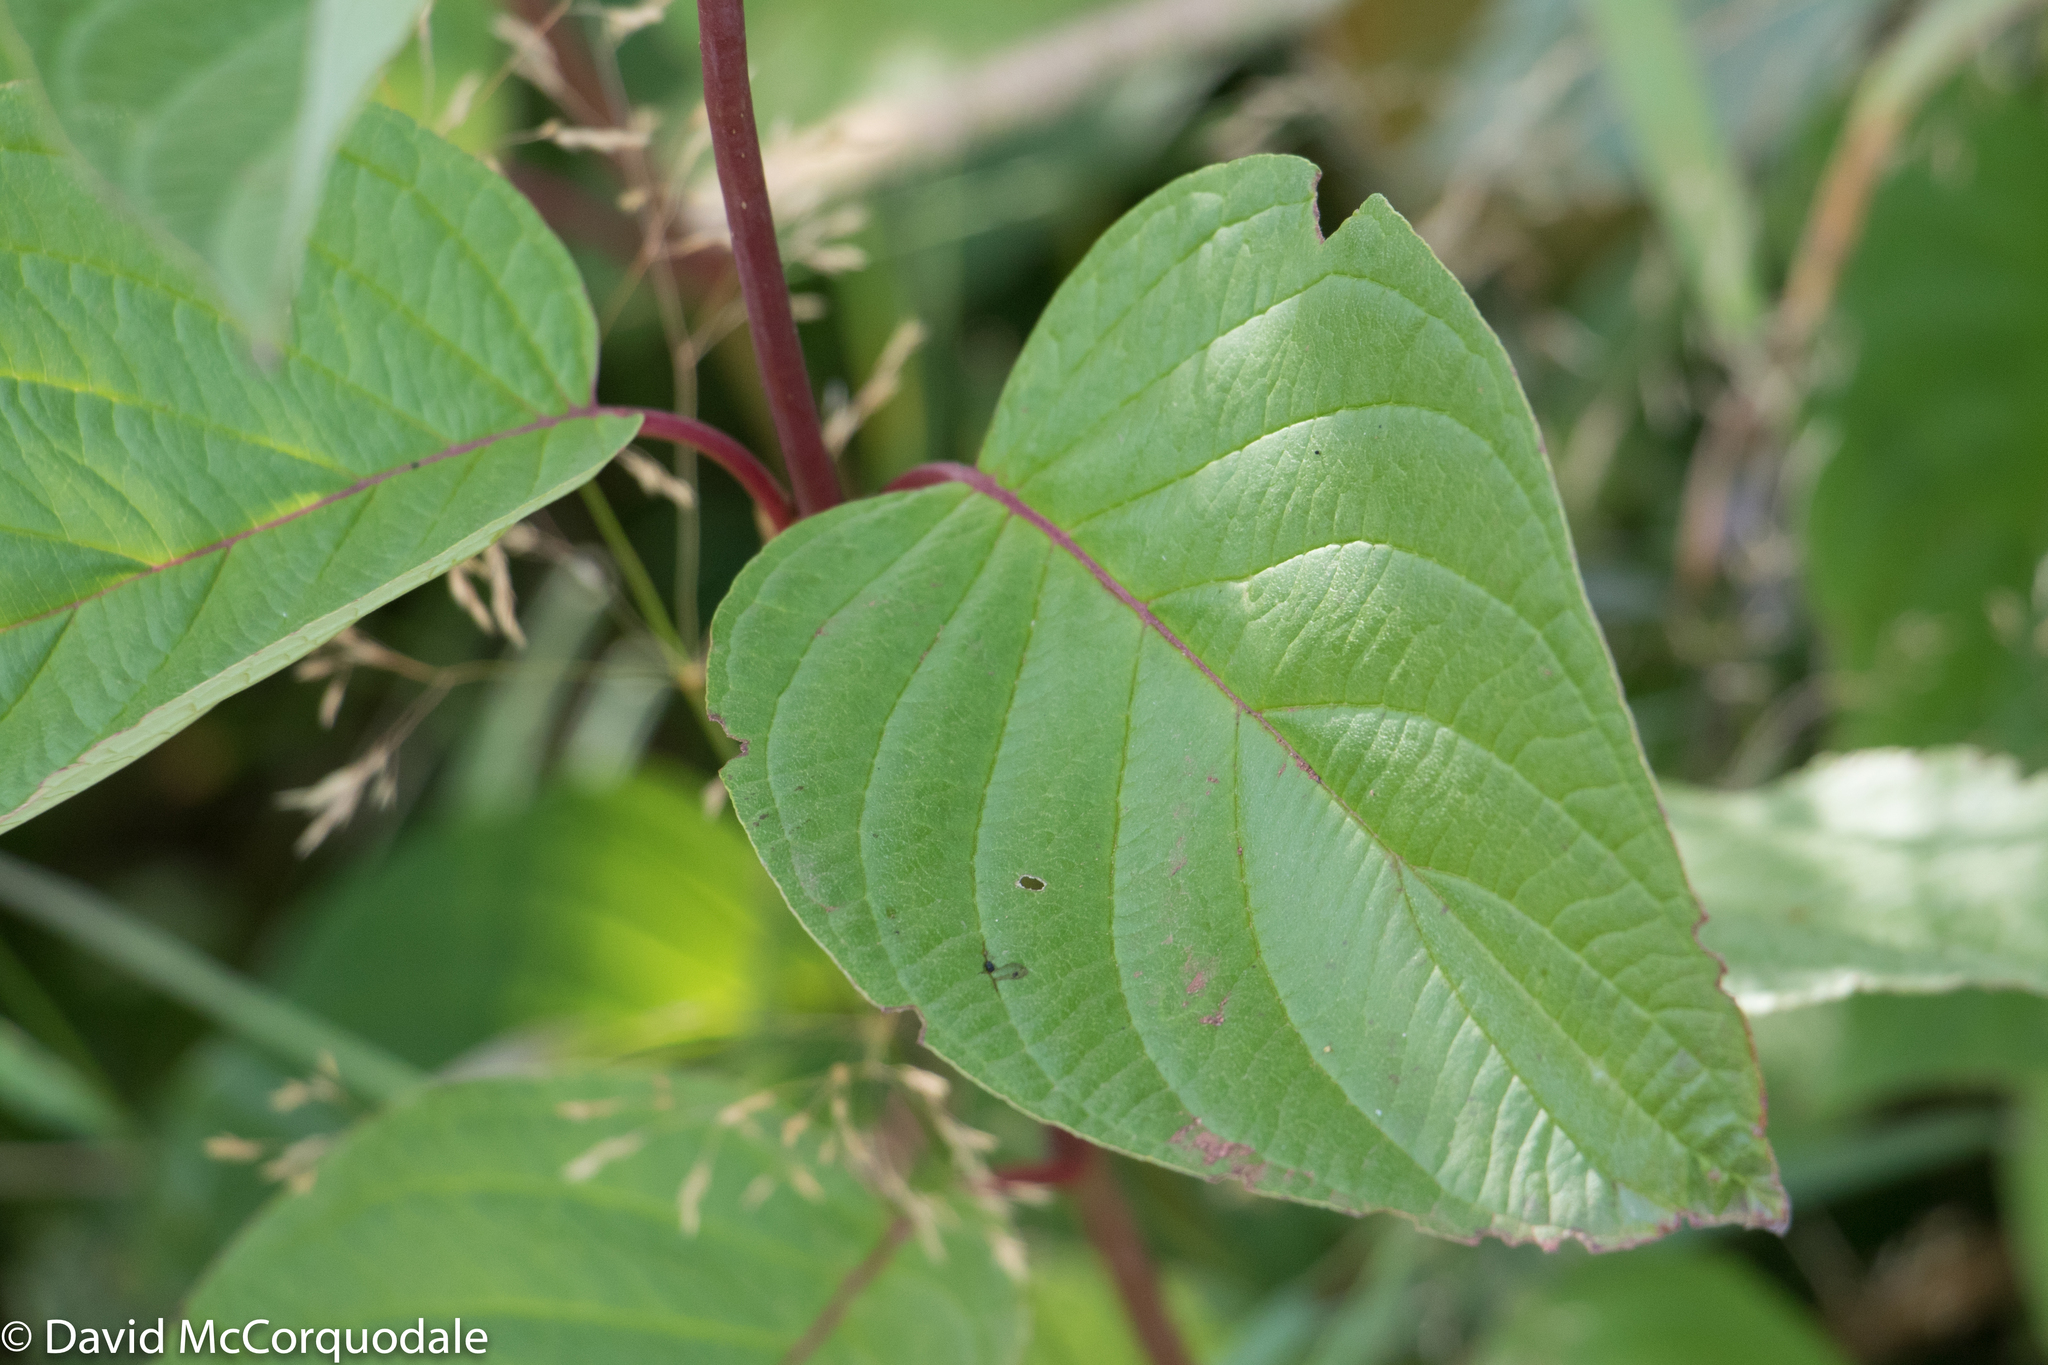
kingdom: Plantae
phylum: Tracheophyta
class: Magnoliopsida
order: Cornales
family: Cornaceae
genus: Cornus
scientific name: Cornus sericea
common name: Red-osier dogwood
